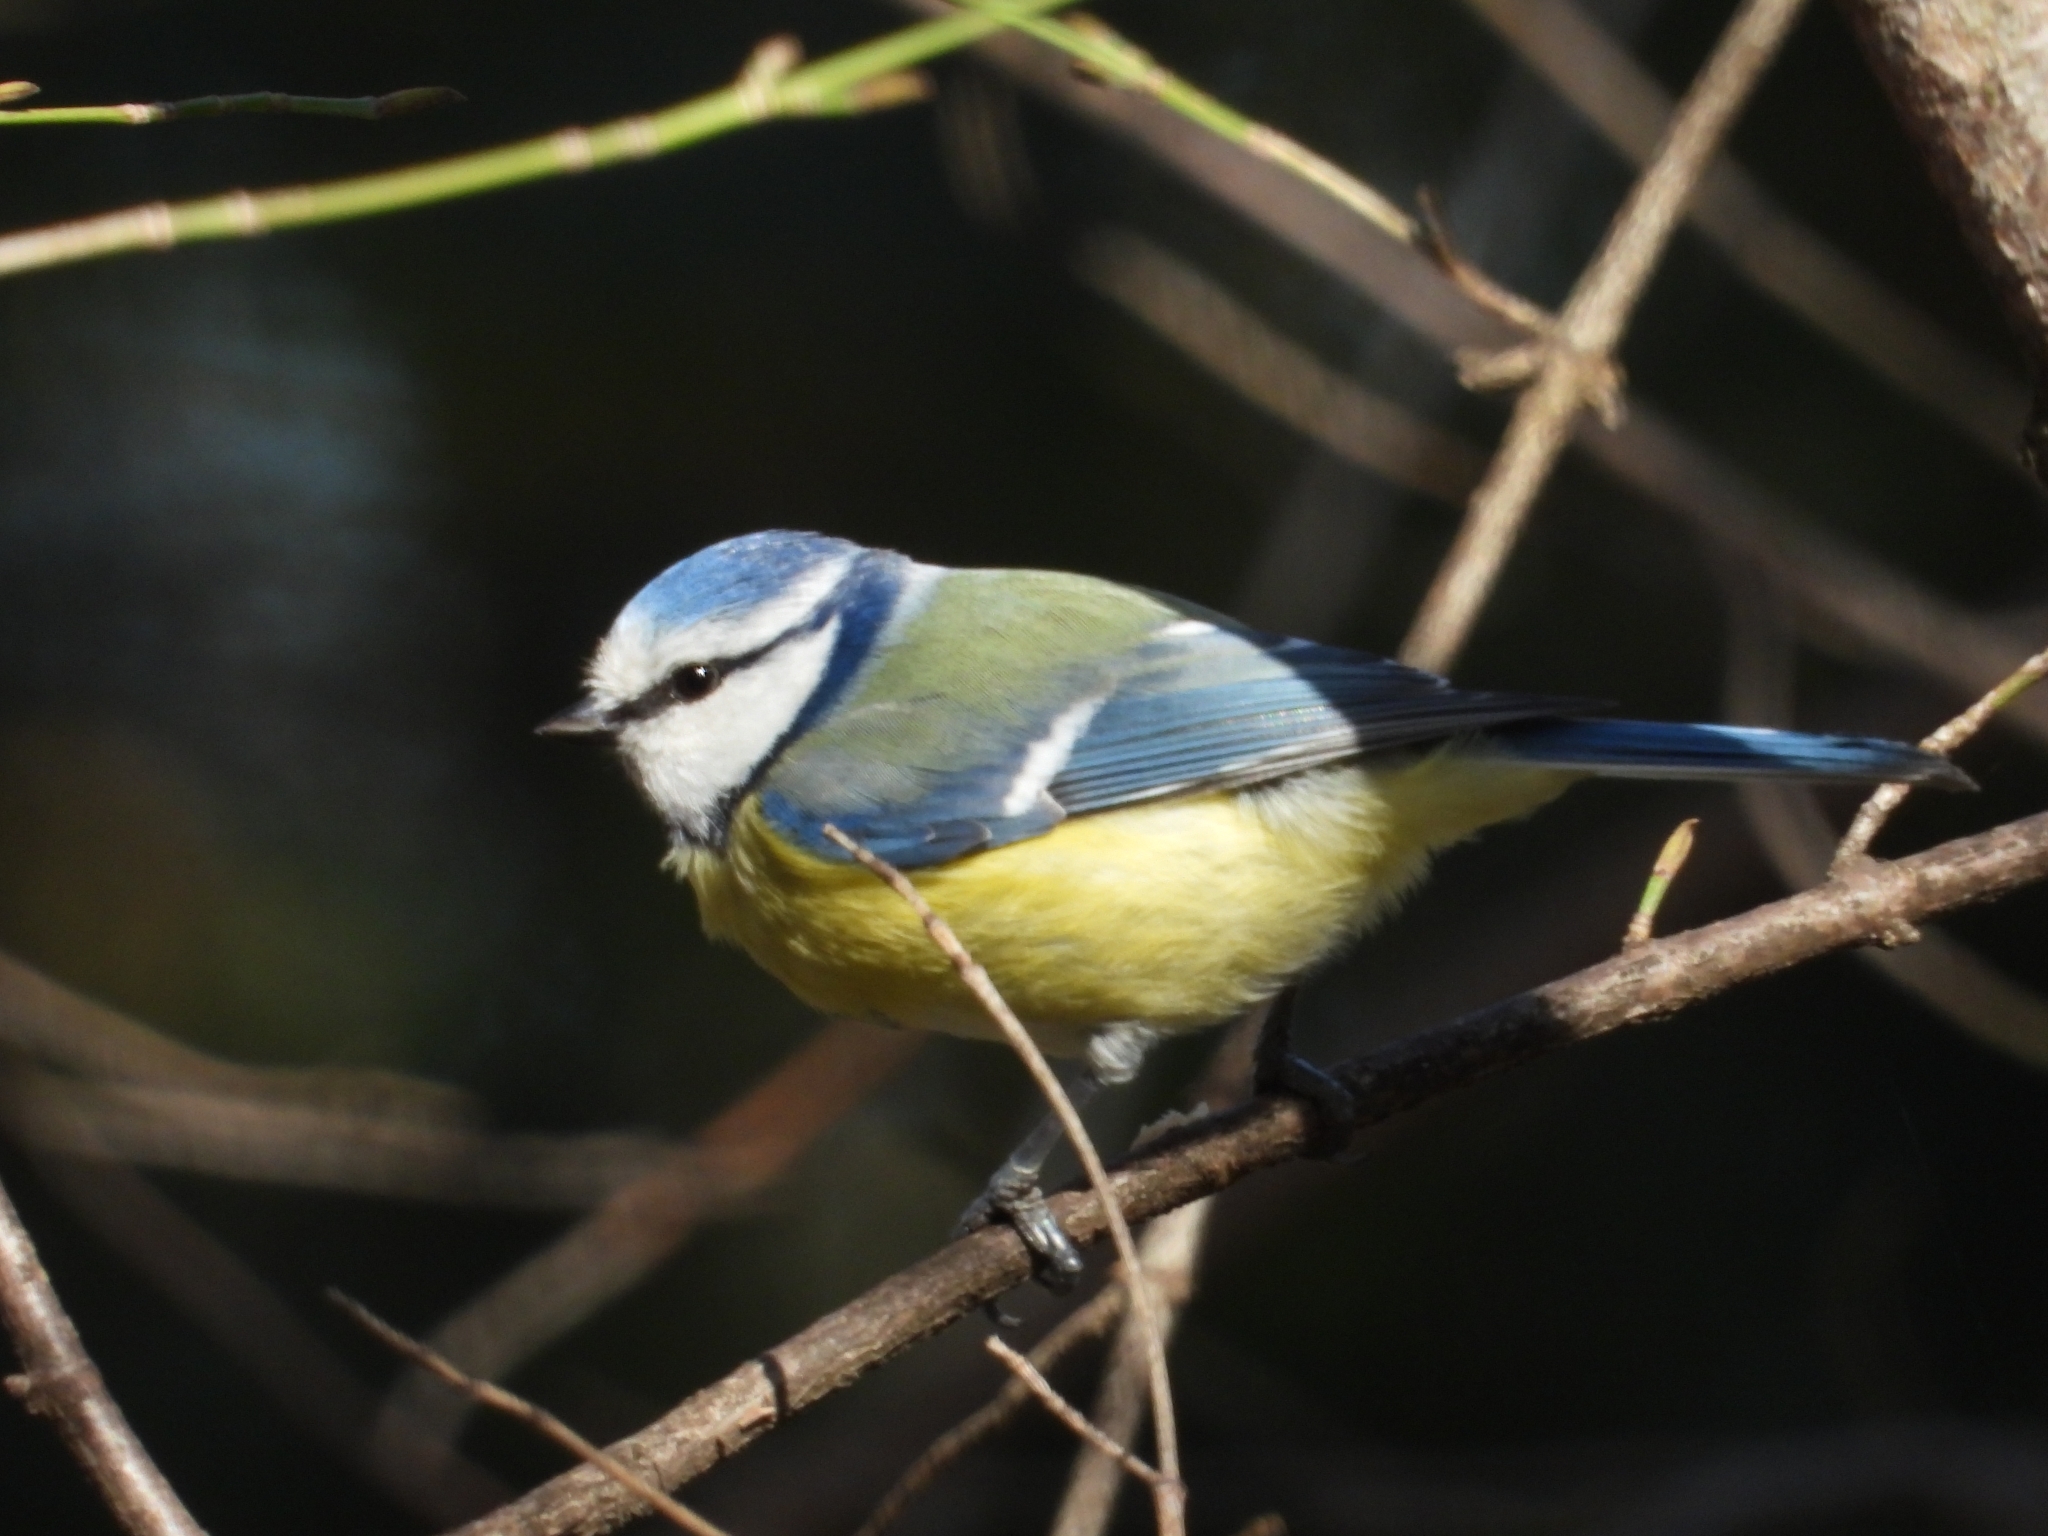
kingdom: Animalia
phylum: Chordata
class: Aves
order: Passeriformes
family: Paridae
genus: Cyanistes
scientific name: Cyanistes caeruleus
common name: Eurasian blue tit
